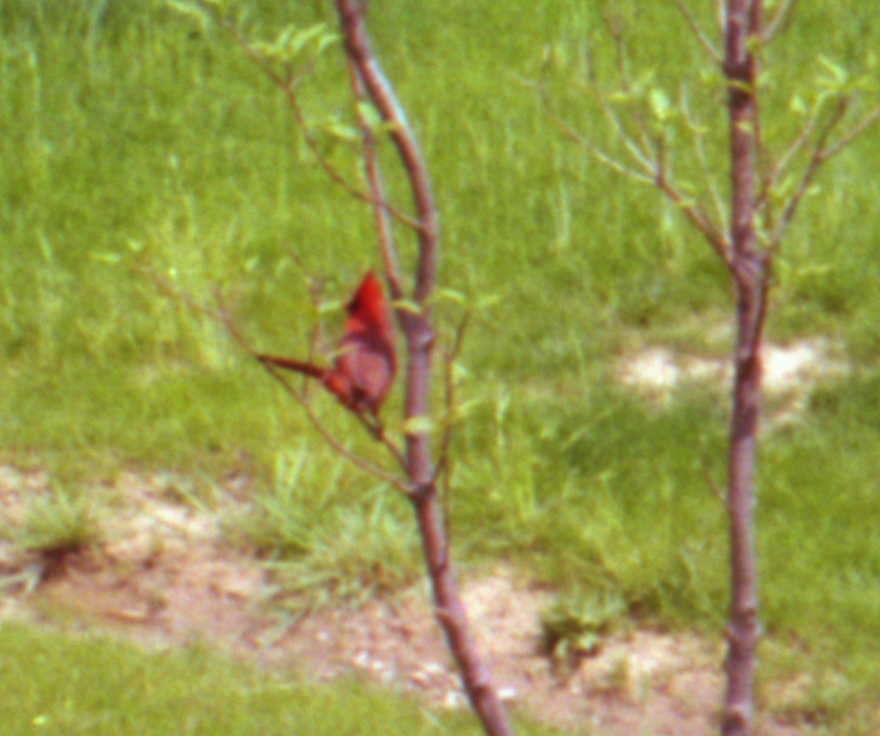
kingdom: Animalia
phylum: Chordata
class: Aves
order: Passeriformes
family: Cardinalidae
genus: Cardinalis
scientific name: Cardinalis cardinalis
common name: Northern cardinal
